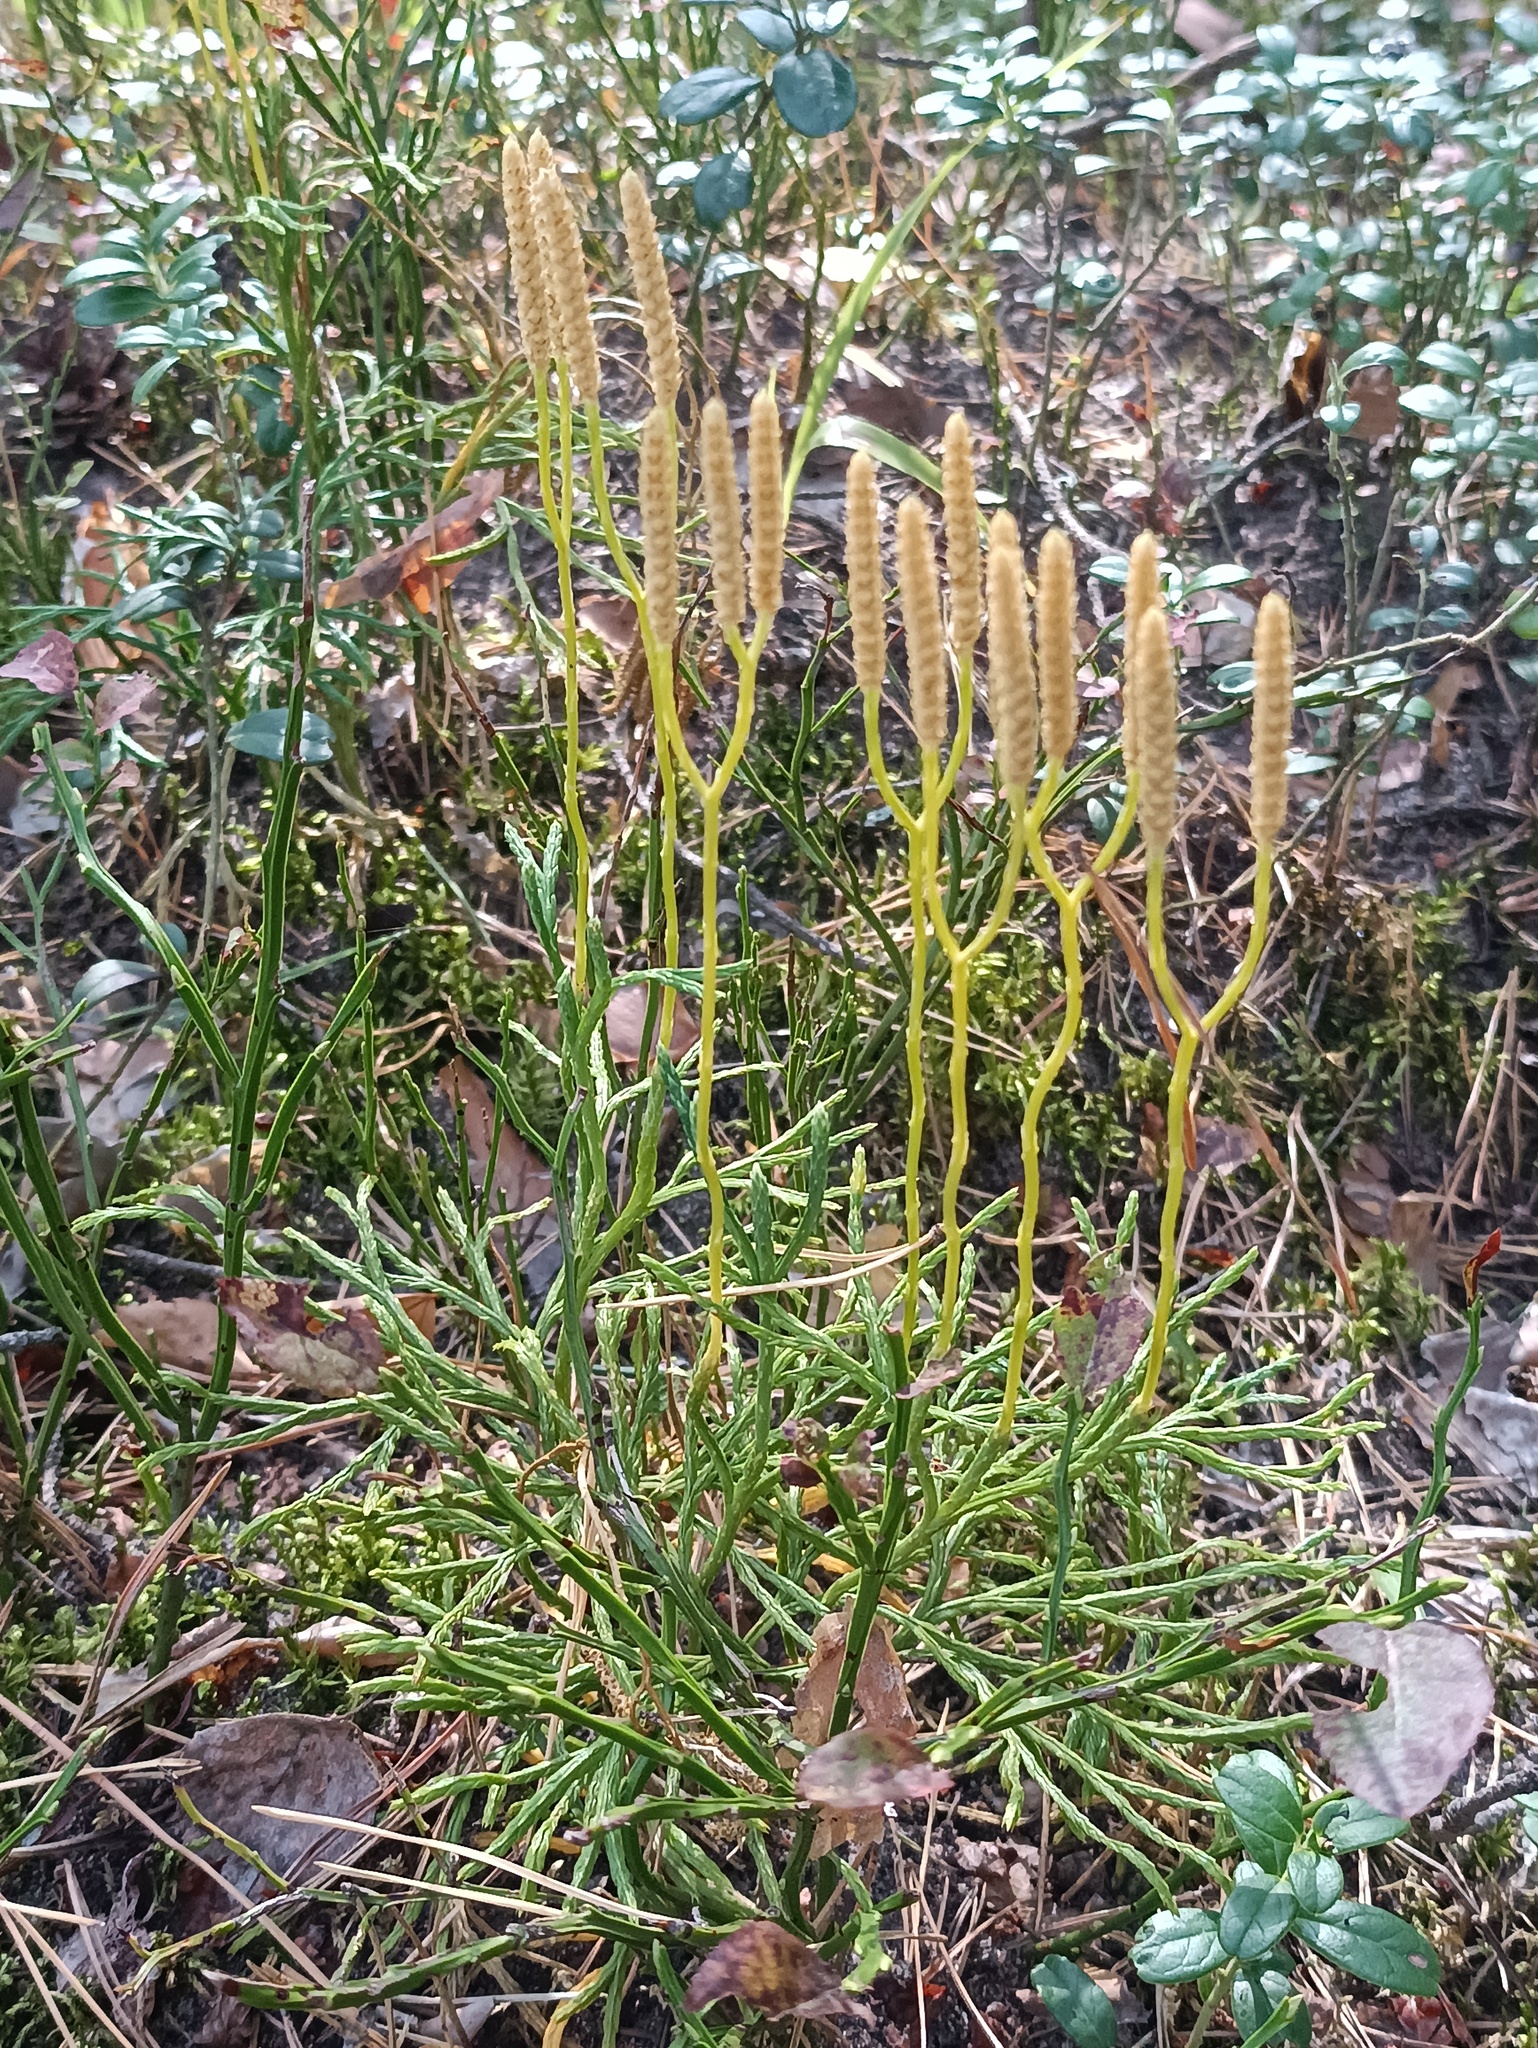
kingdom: Plantae
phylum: Tracheophyta
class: Lycopodiopsida
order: Lycopodiales
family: Lycopodiaceae
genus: Diphasiastrum
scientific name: Diphasiastrum complanatum
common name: Northern running-pine
